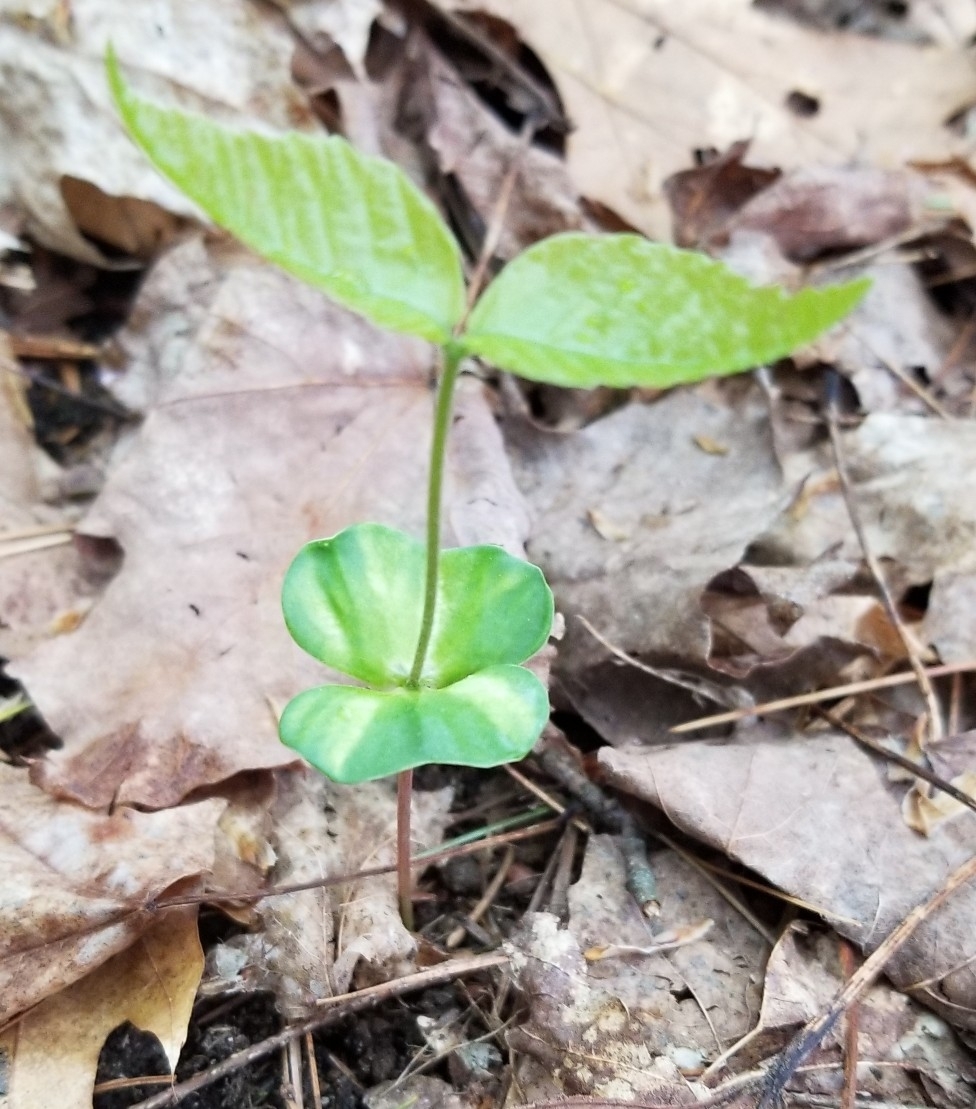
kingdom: Plantae
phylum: Tracheophyta
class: Magnoliopsida
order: Fagales
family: Fagaceae
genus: Fagus
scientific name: Fagus grandifolia
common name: American beech
